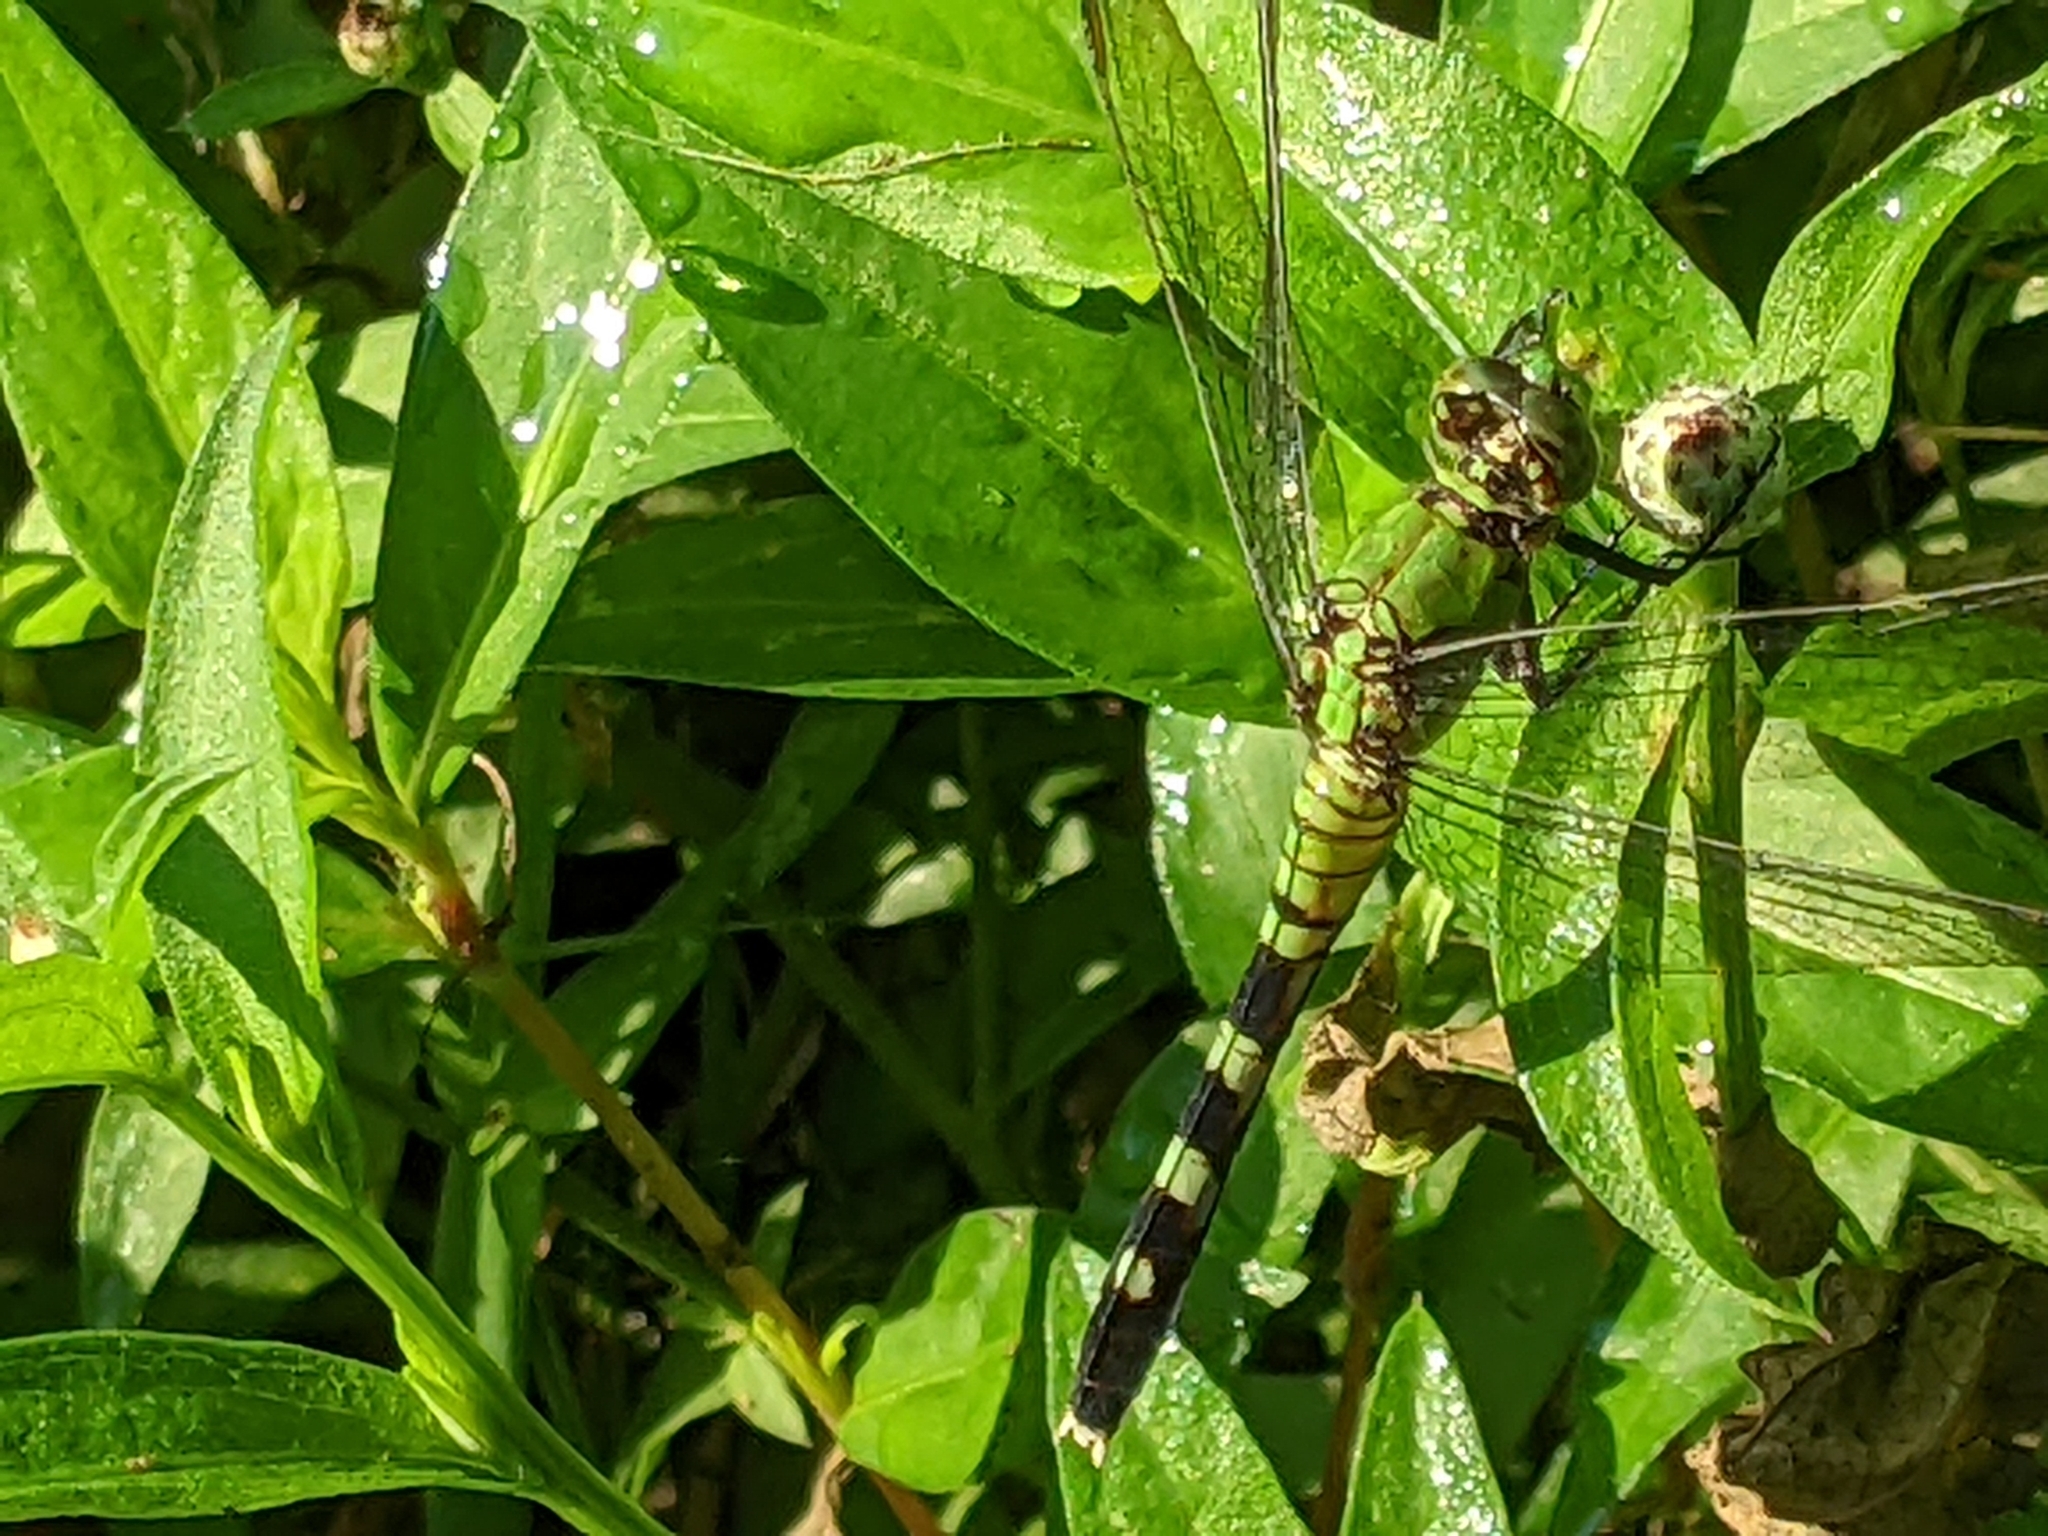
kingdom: Animalia
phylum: Arthropoda
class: Insecta
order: Odonata
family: Libellulidae
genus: Erythemis
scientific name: Erythemis simplicicollis
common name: Eastern pondhawk
